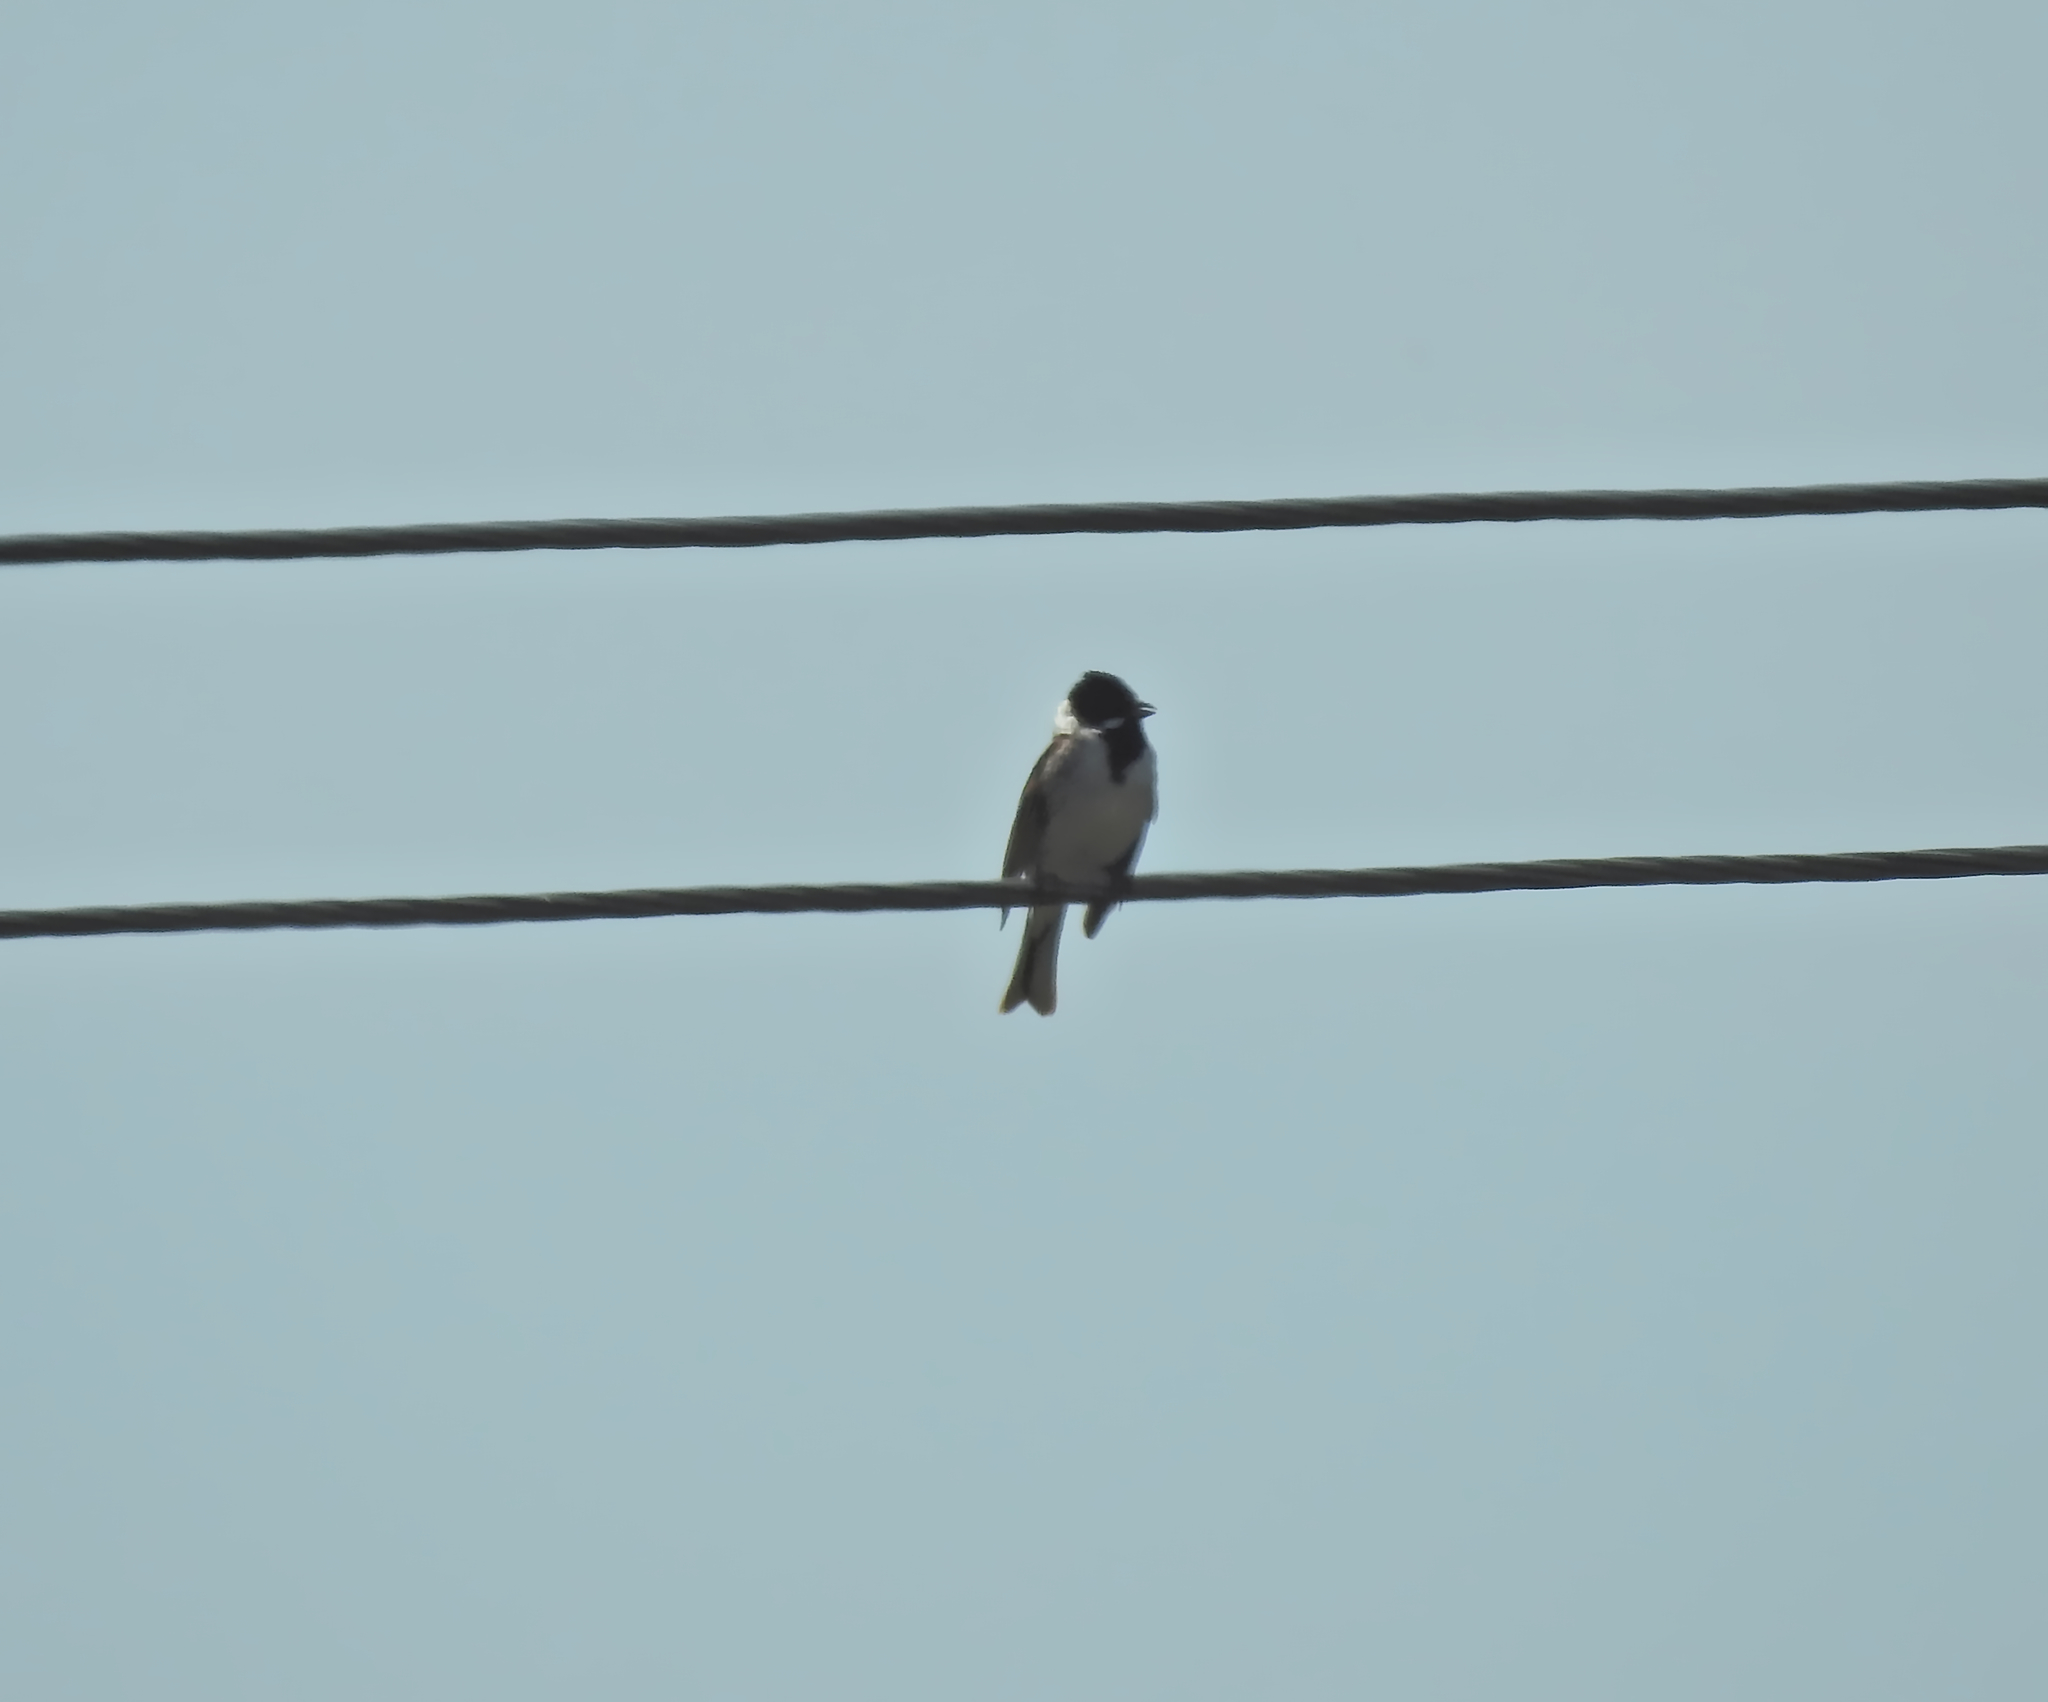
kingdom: Animalia
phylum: Chordata
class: Aves
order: Passeriformes
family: Emberizidae
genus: Emberiza
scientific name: Emberiza schoeniclus
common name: Reed bunting
